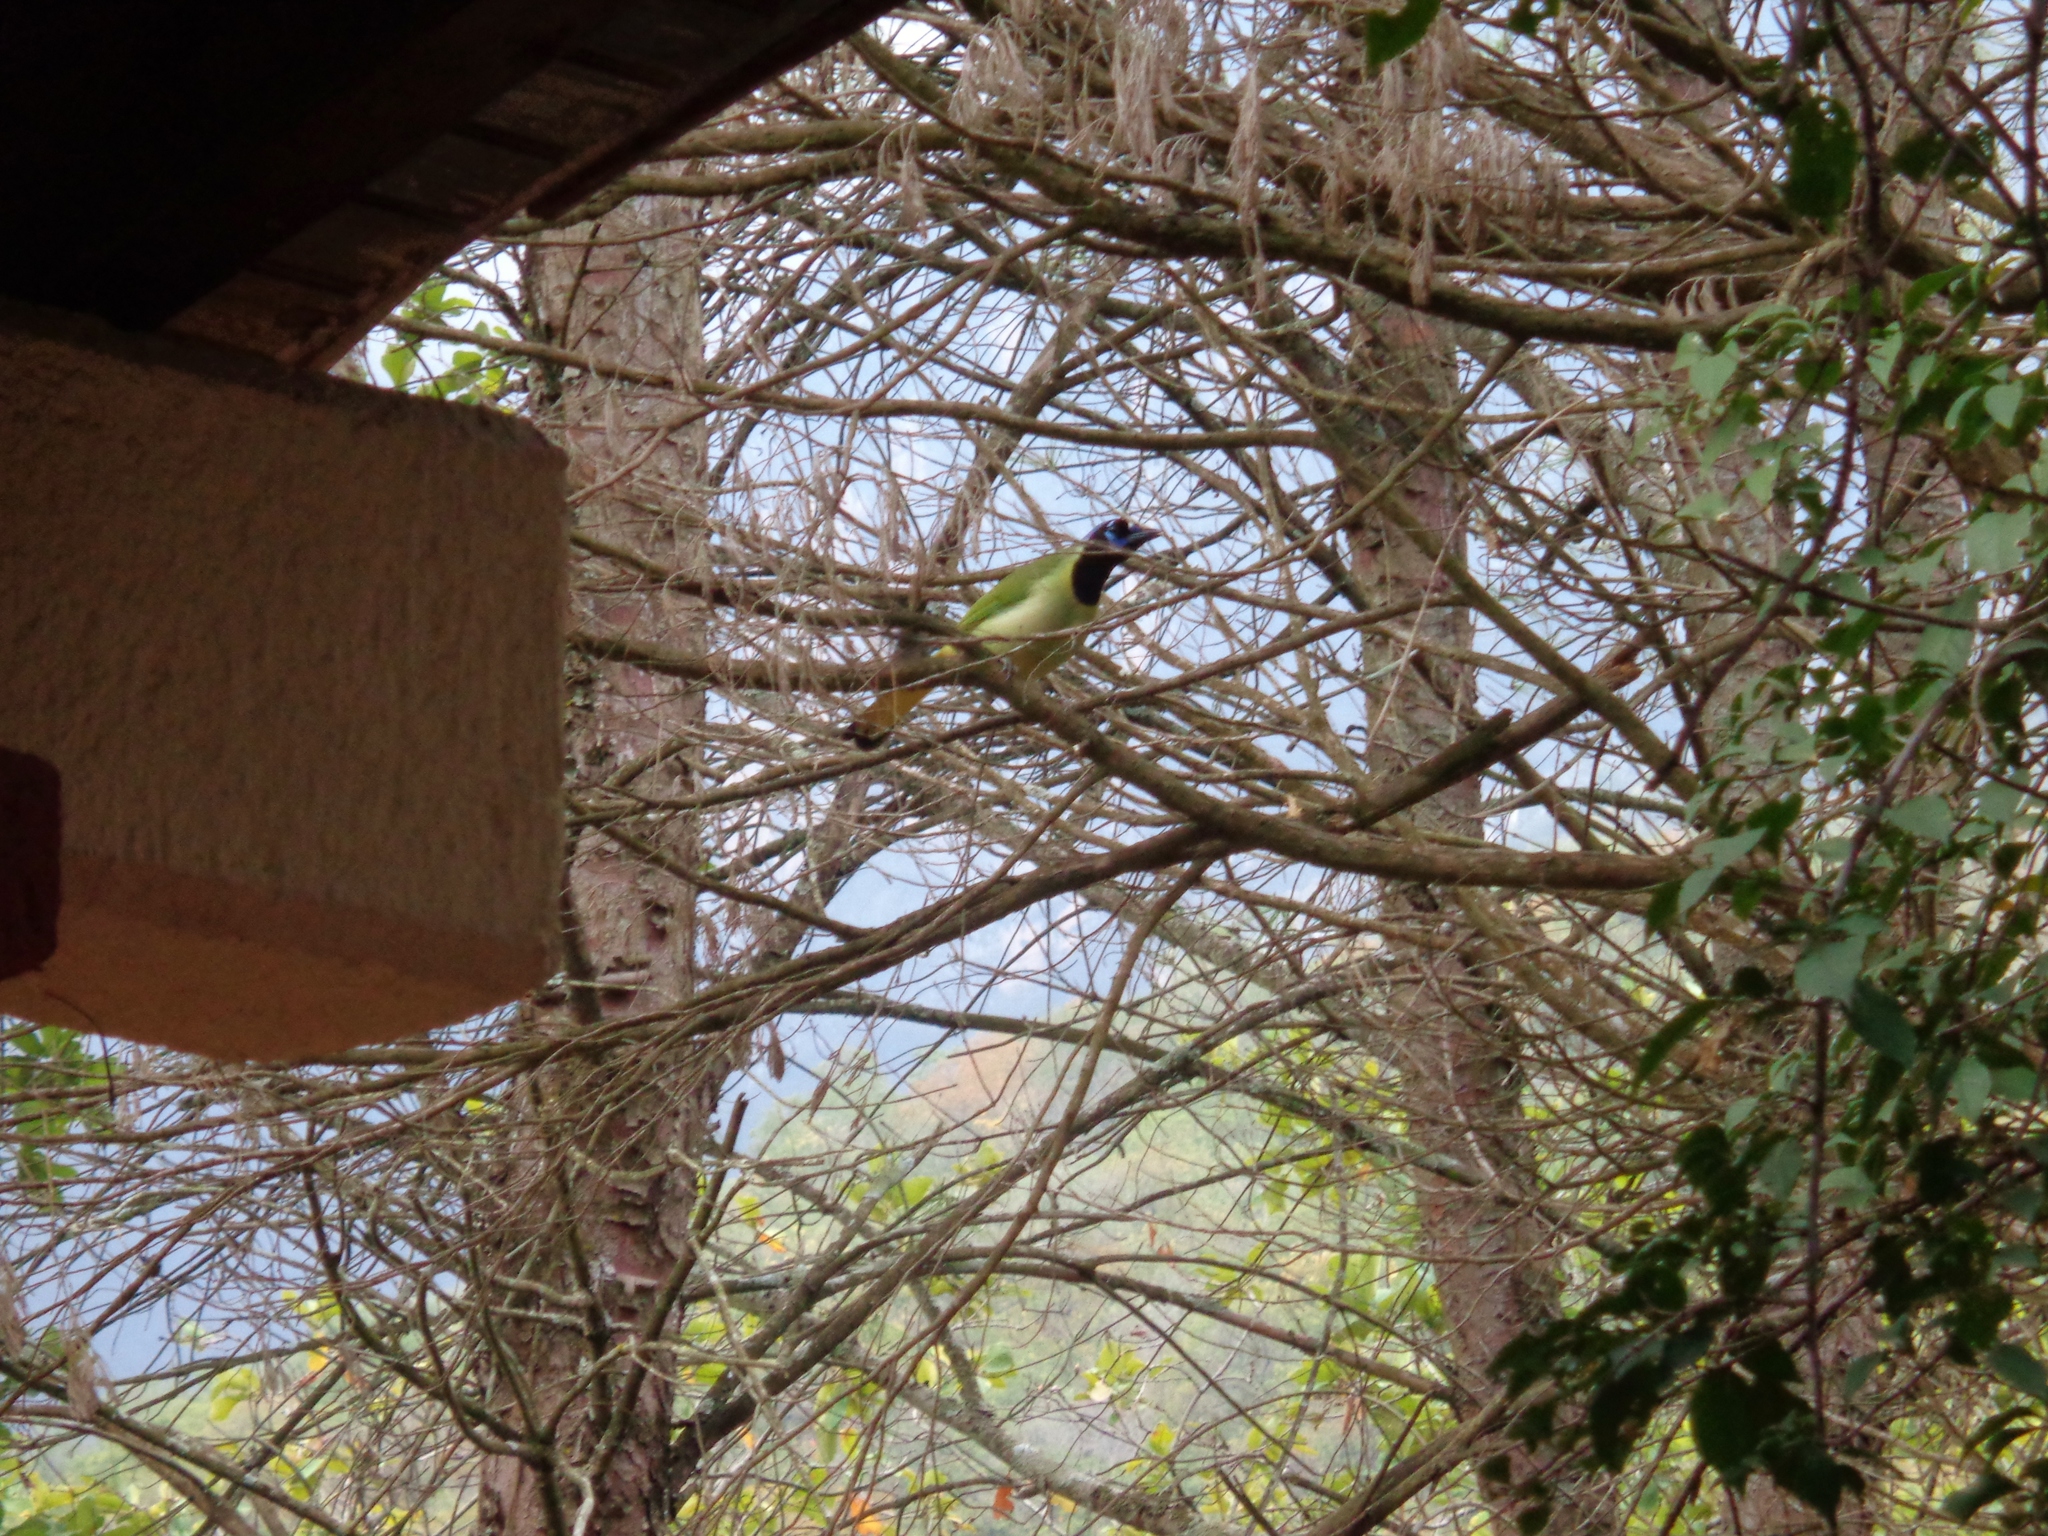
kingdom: Animalia
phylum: Chordata
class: Aves
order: Passeriformes
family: Corvidae
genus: Cyanocorax
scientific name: Cyanocorax yncas
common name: Green jay
